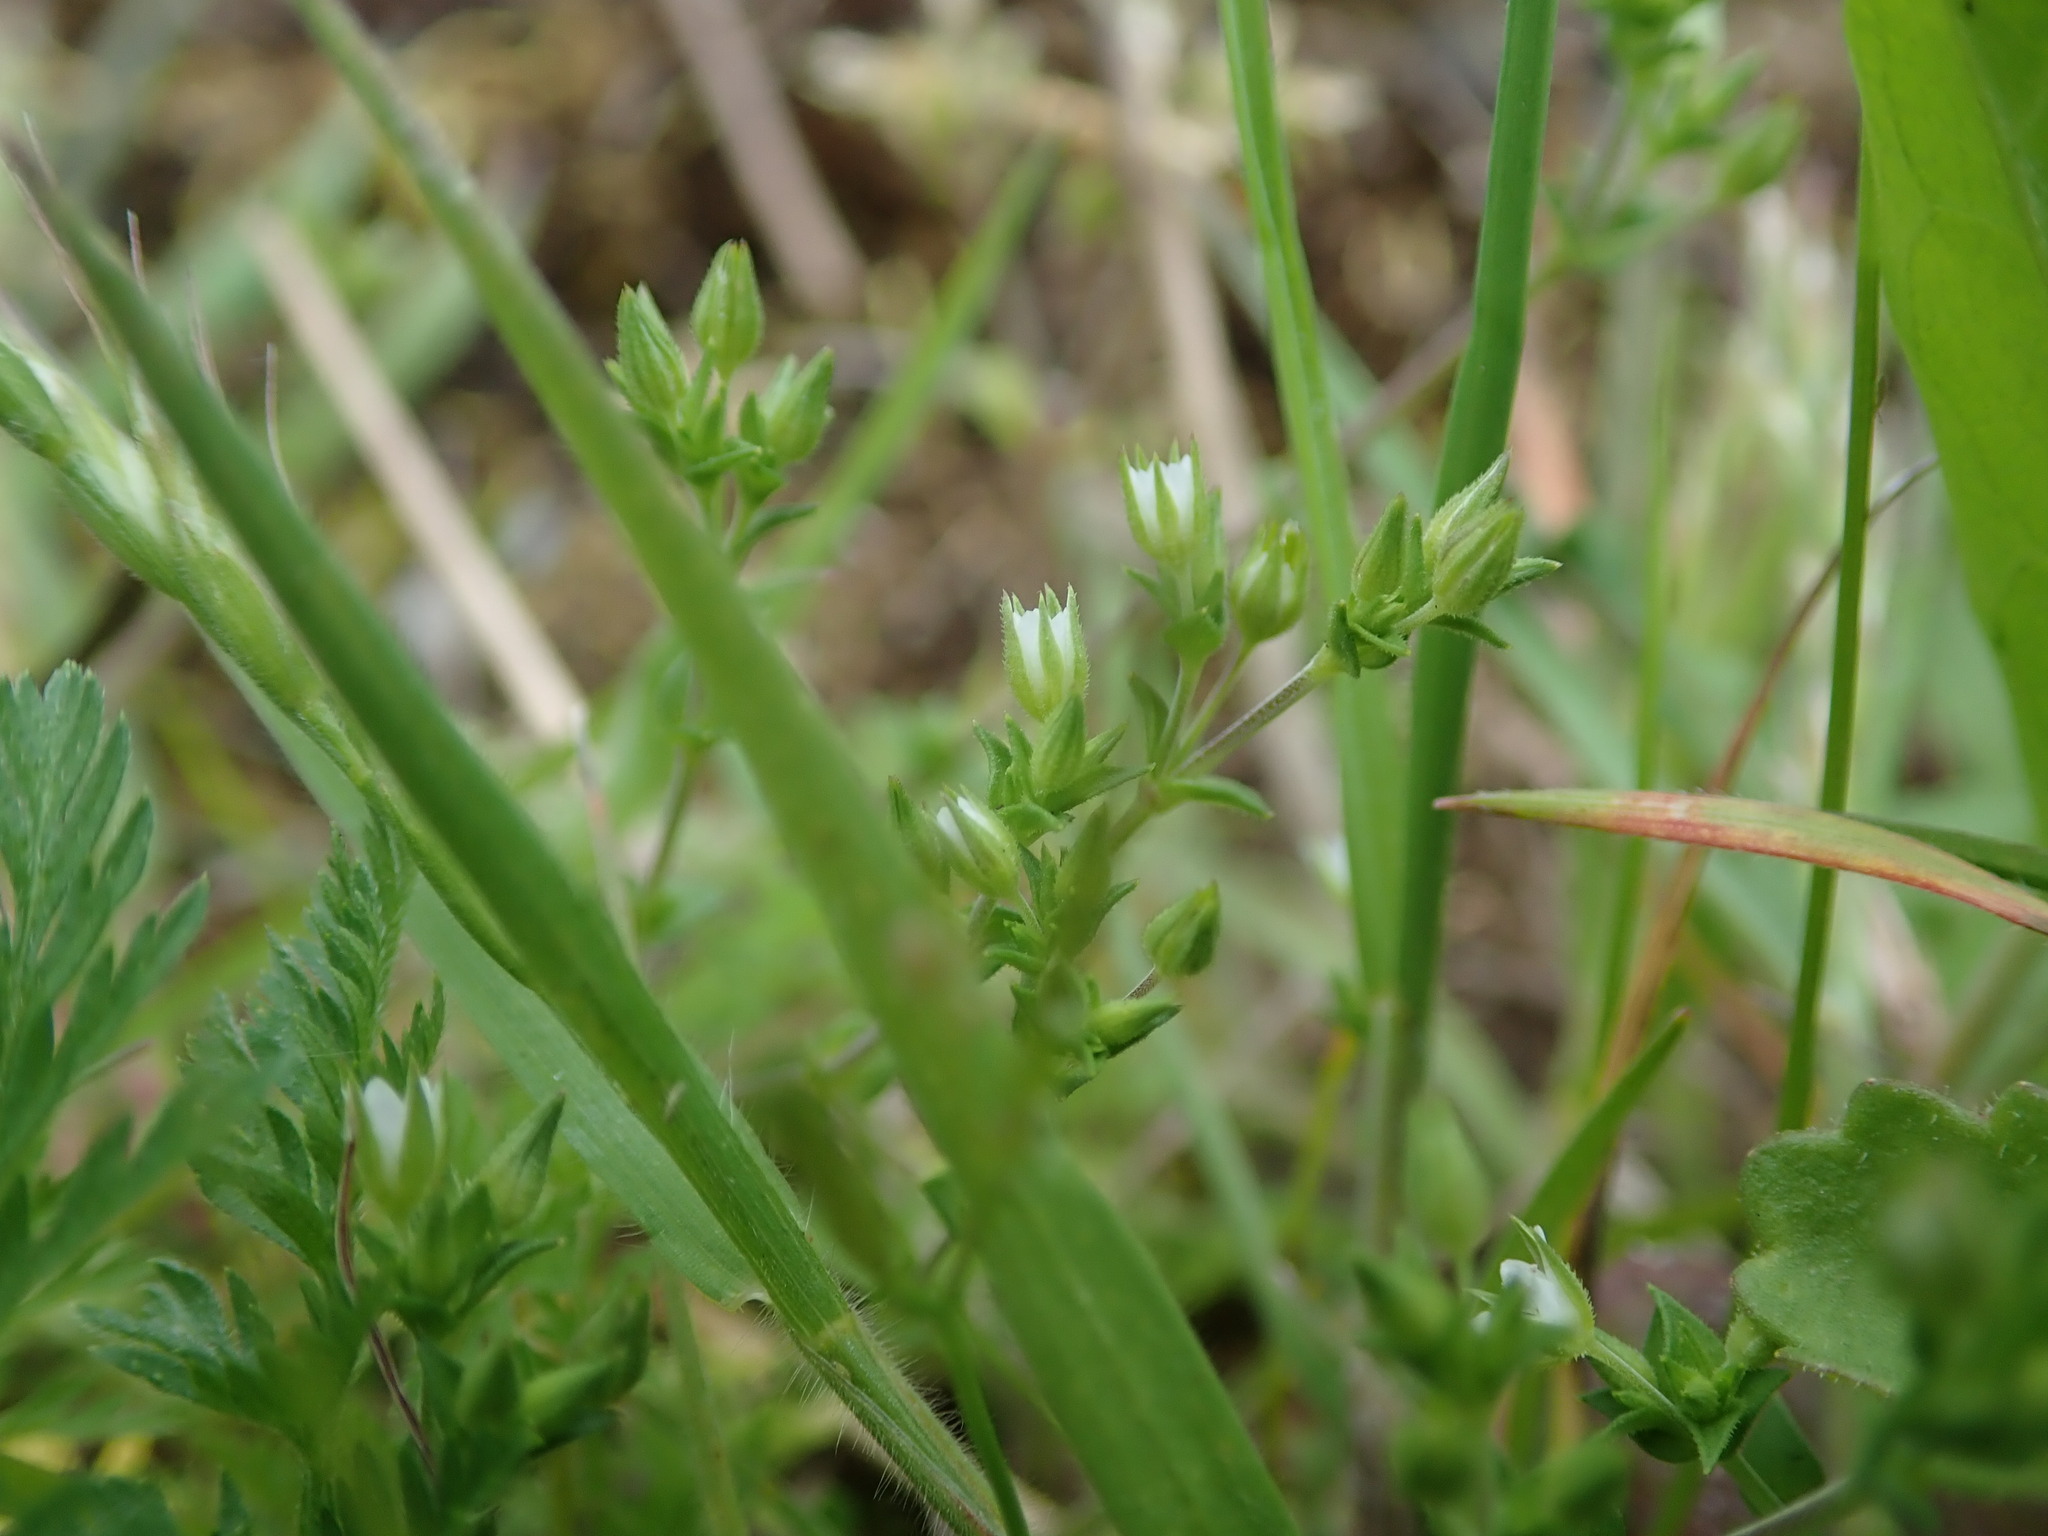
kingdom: Plantae
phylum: Tracheophyta
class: Magnoliopsida
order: Caryophyllales
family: Caryophyllaceae
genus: Arenaria
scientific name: Arenaria serpyllifolia
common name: Thyme-leaved sandwort
